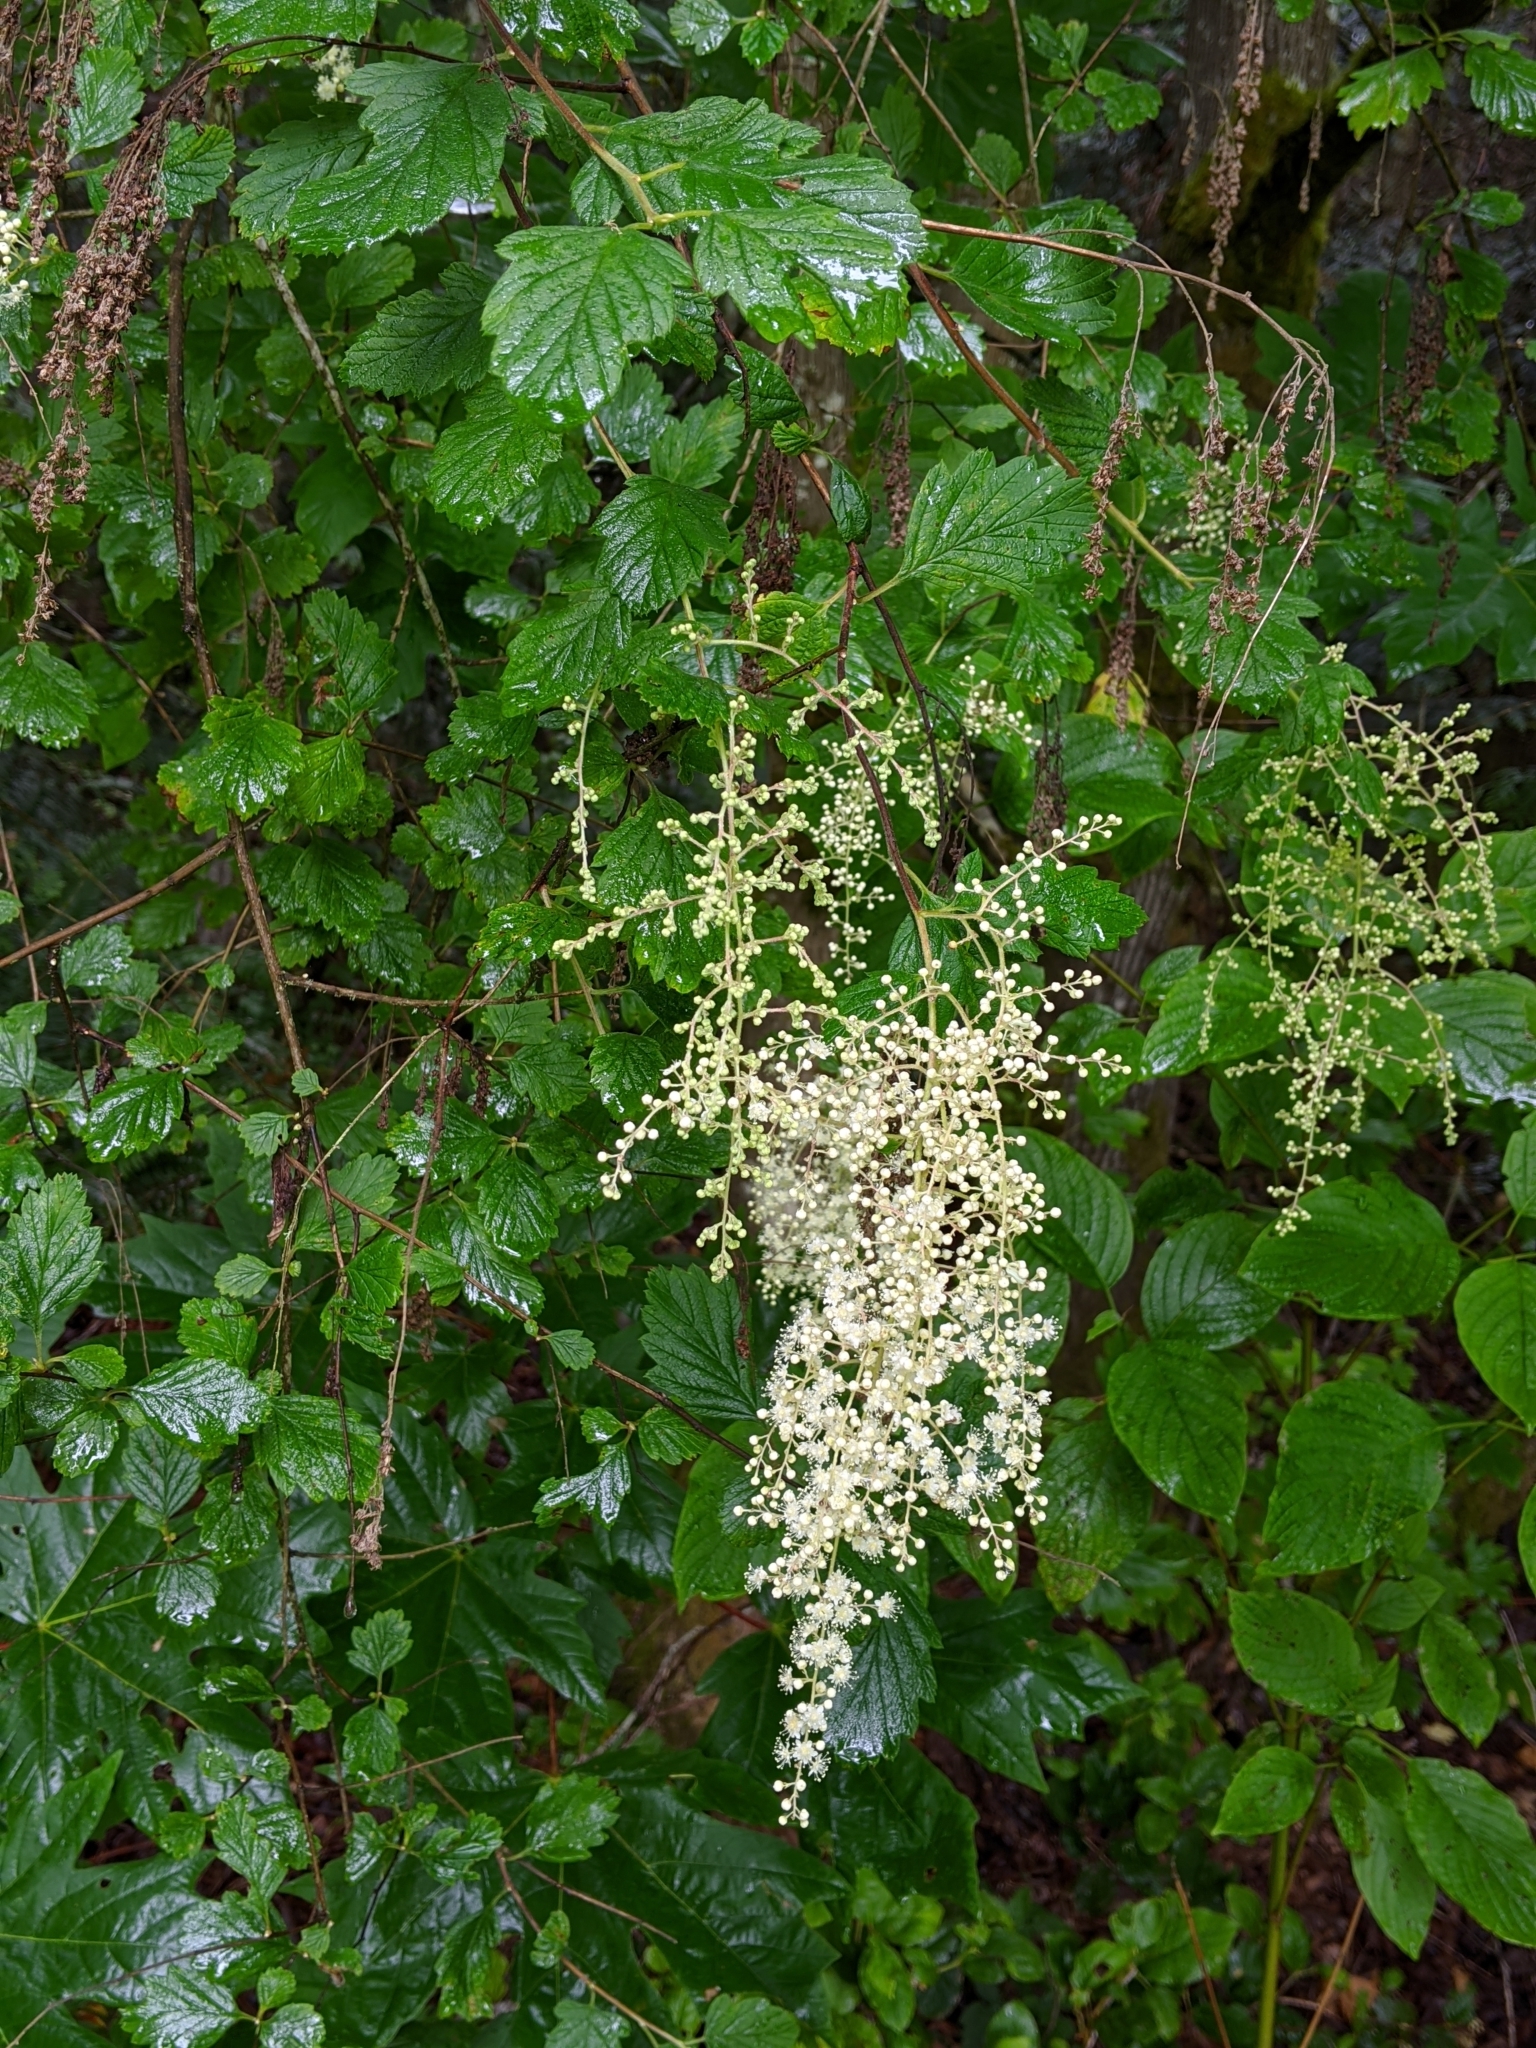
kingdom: Plantae
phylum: Tracheophyta
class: Magnoliopsida
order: Rosales
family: Rosaceae
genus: Holodiscus
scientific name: Holodiscus discolor
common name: Oceanspray
